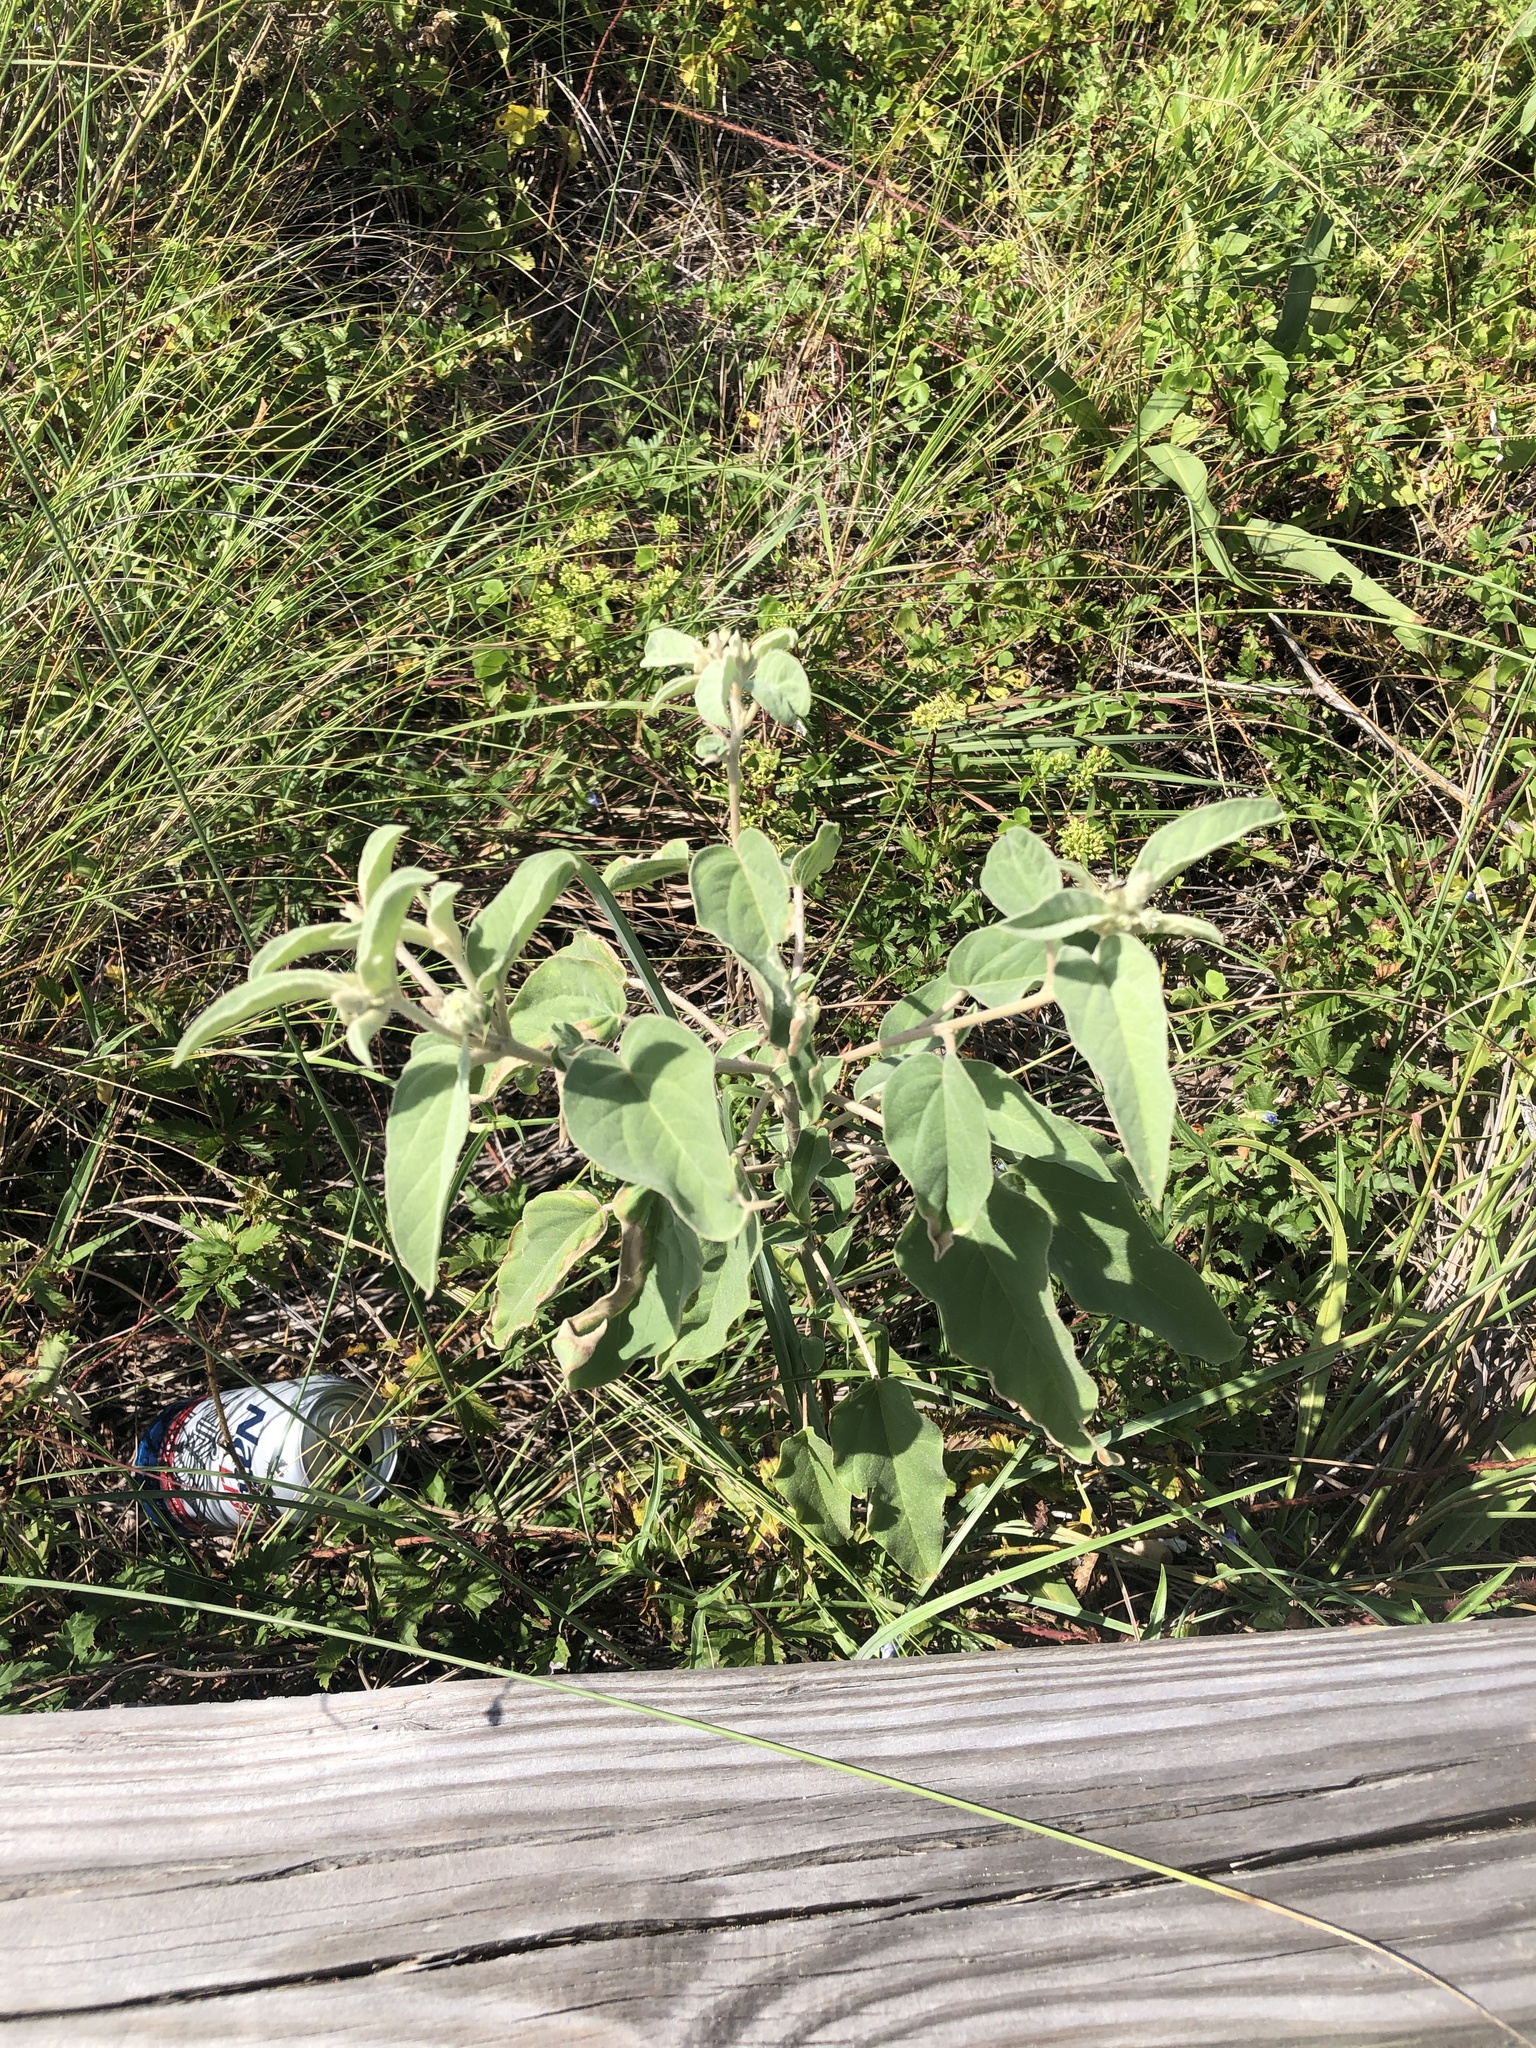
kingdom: Plantae
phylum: Tracheophyta
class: Magnoliopsida
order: Malpighiales
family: Euphorbiaceae
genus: Croton
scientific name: Croton lindheimeri
